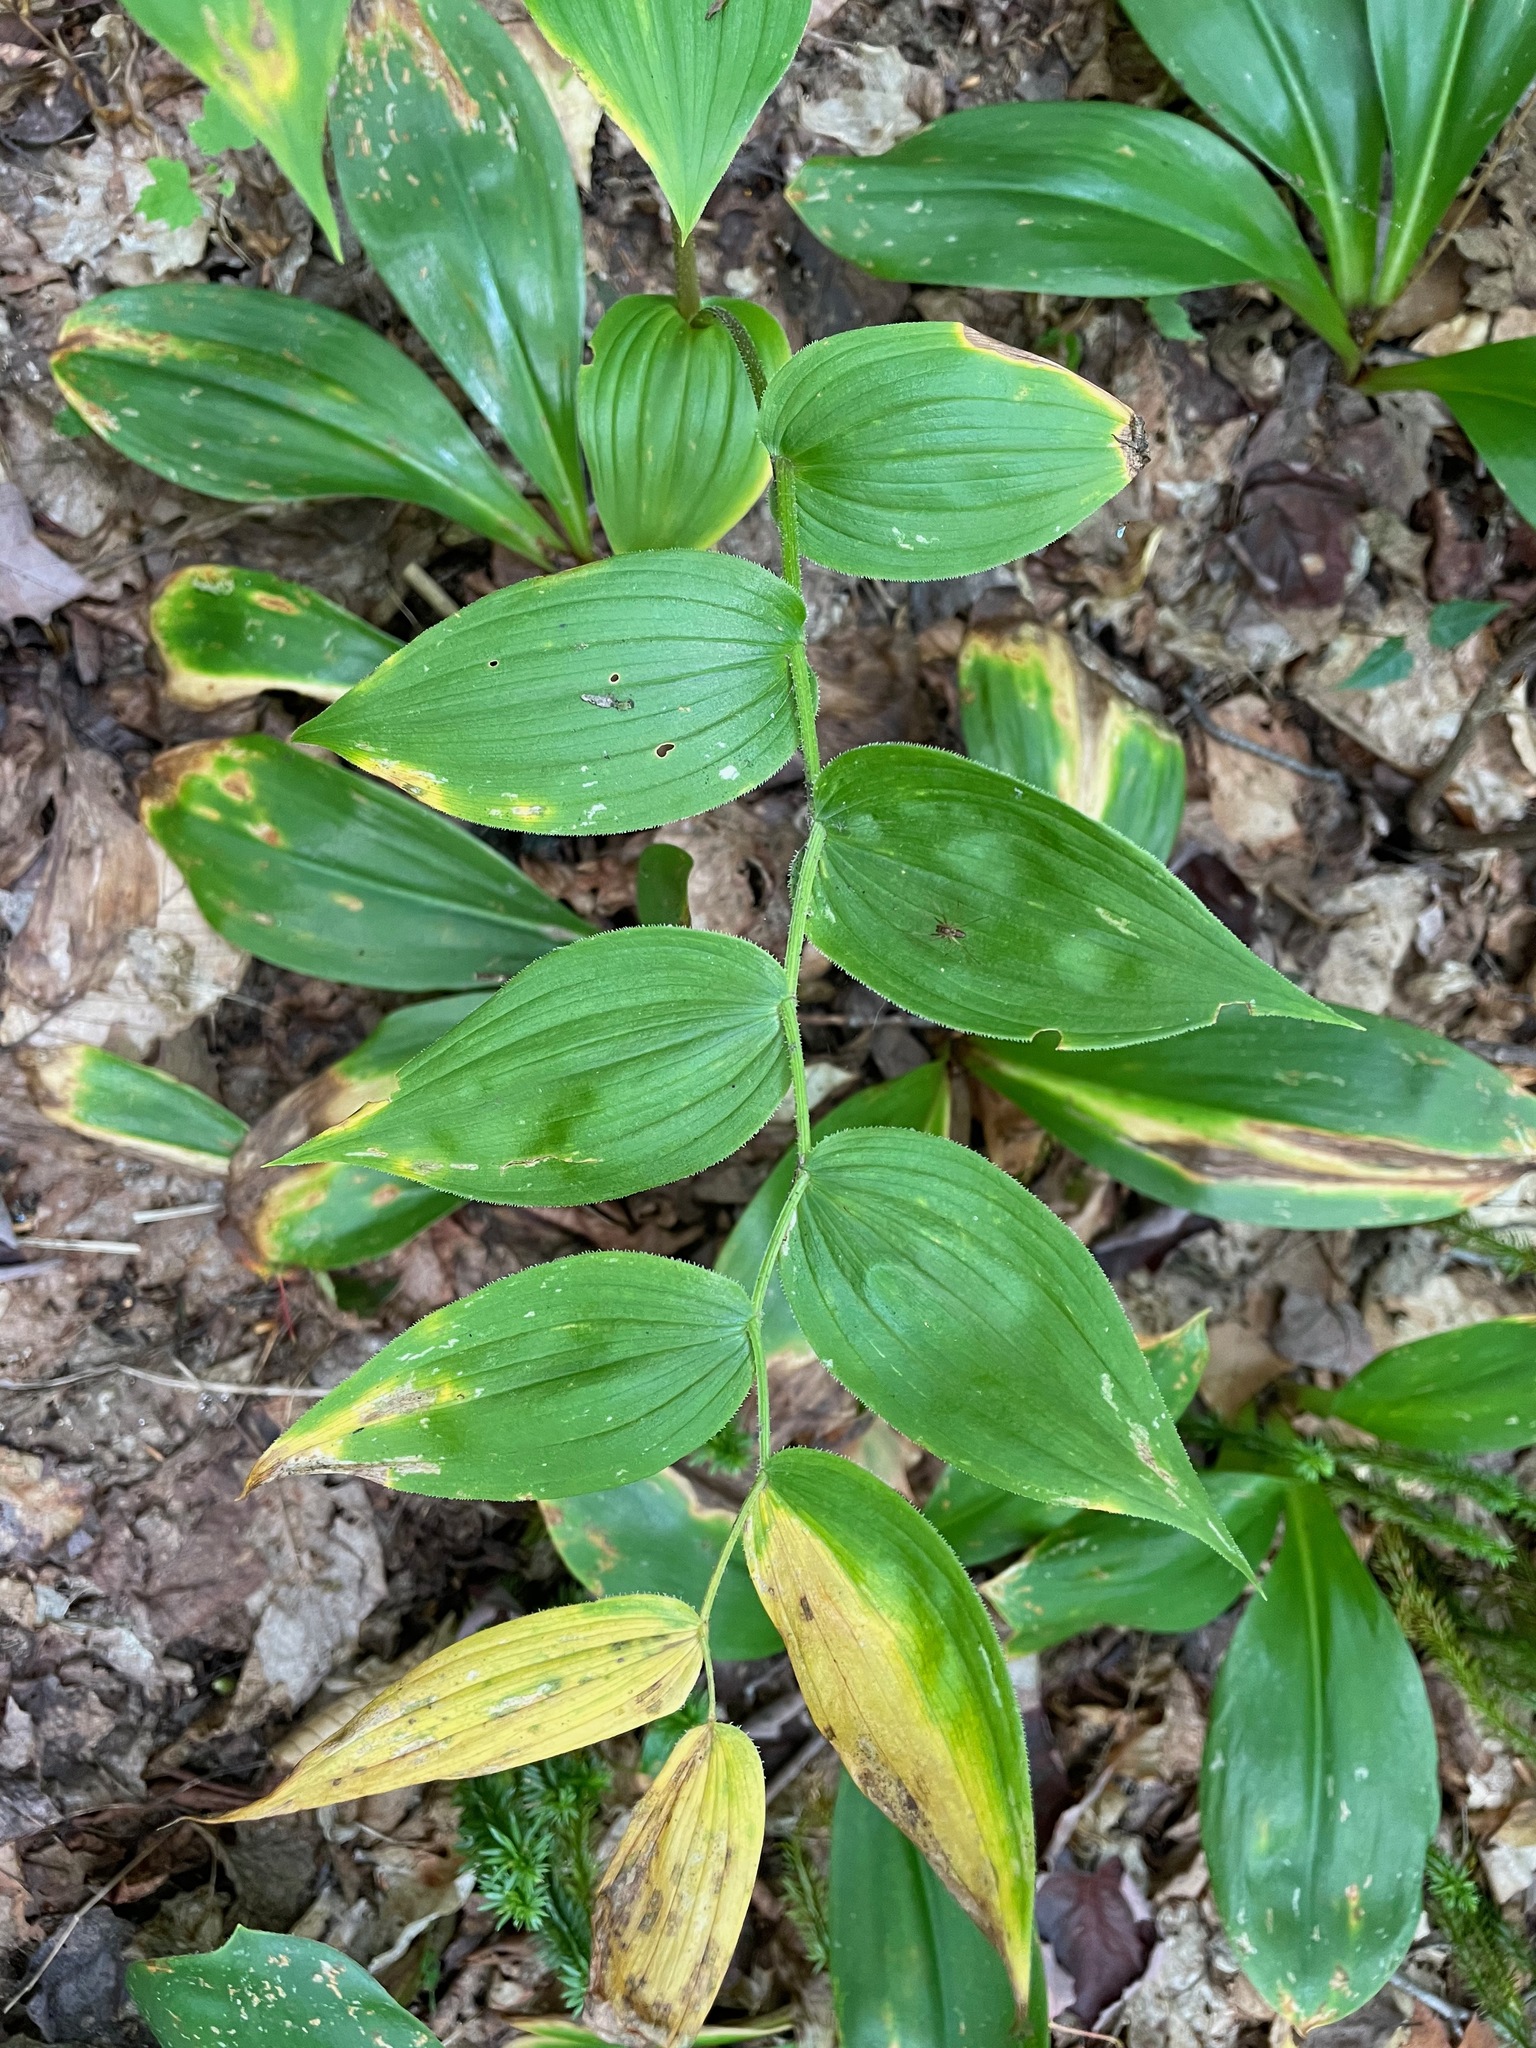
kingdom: Plantae
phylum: Tracheophyta
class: Liliopsida
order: Liliales
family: Liliaceae
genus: Streptopus
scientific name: Streptopus lanceolatus
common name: Rose mandarin
